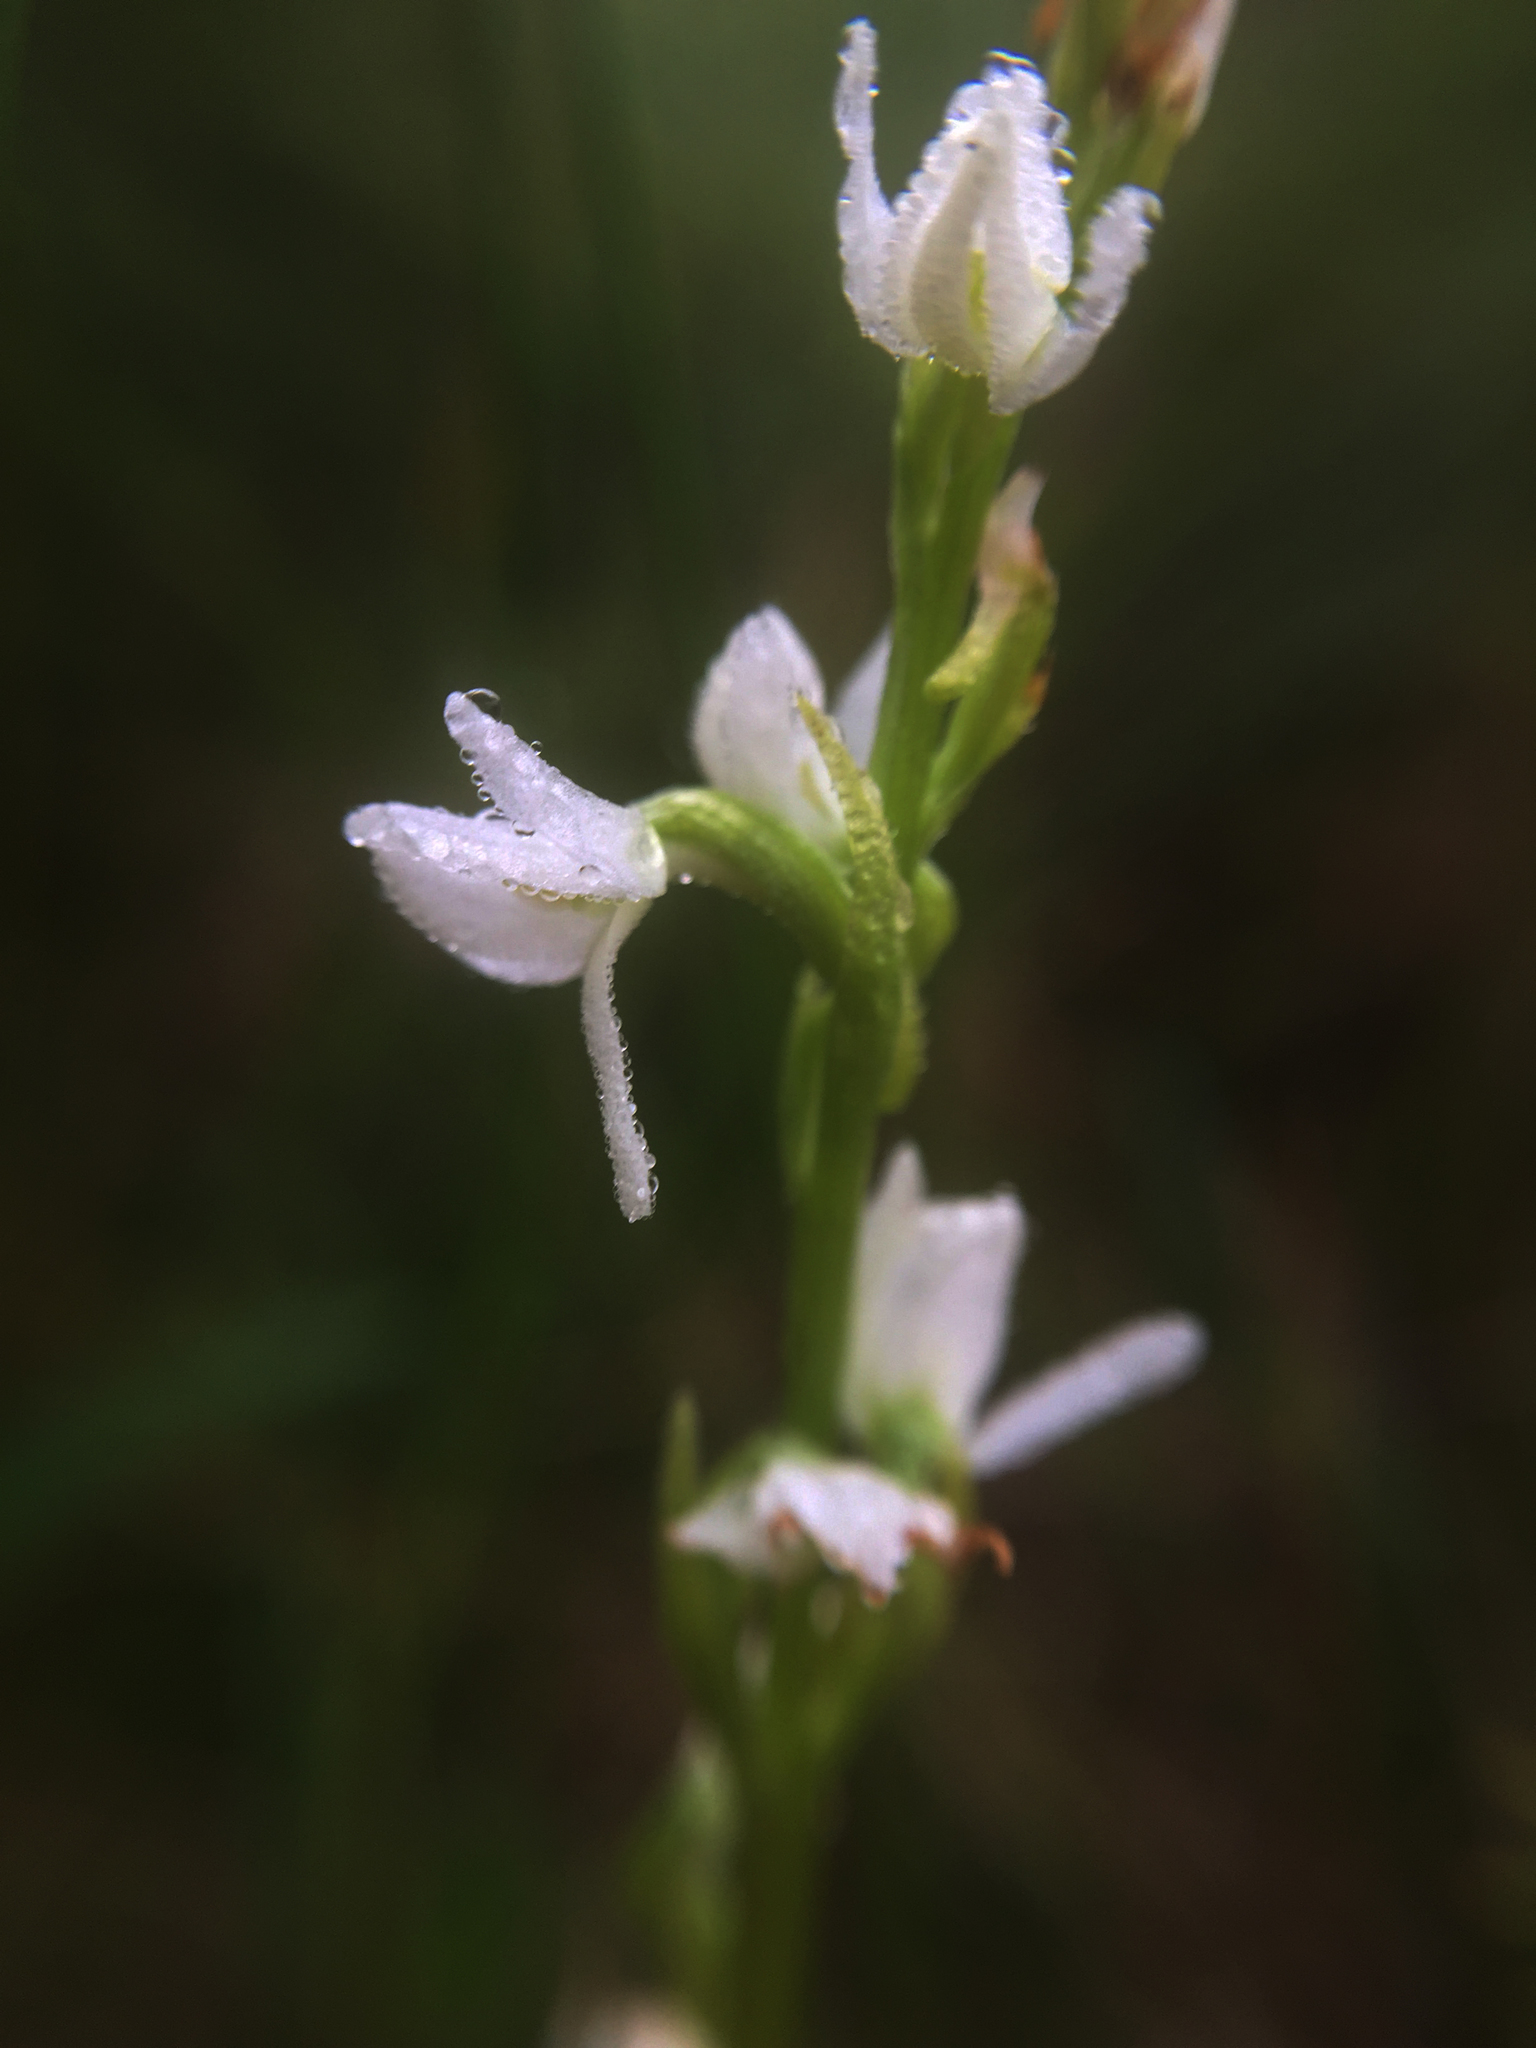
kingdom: Plantae
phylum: Tracheophyta
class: Liliopsida
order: Asparagales
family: Orchidaceae
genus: Platanthera
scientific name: Platanthera dilatata
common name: Bog candles
